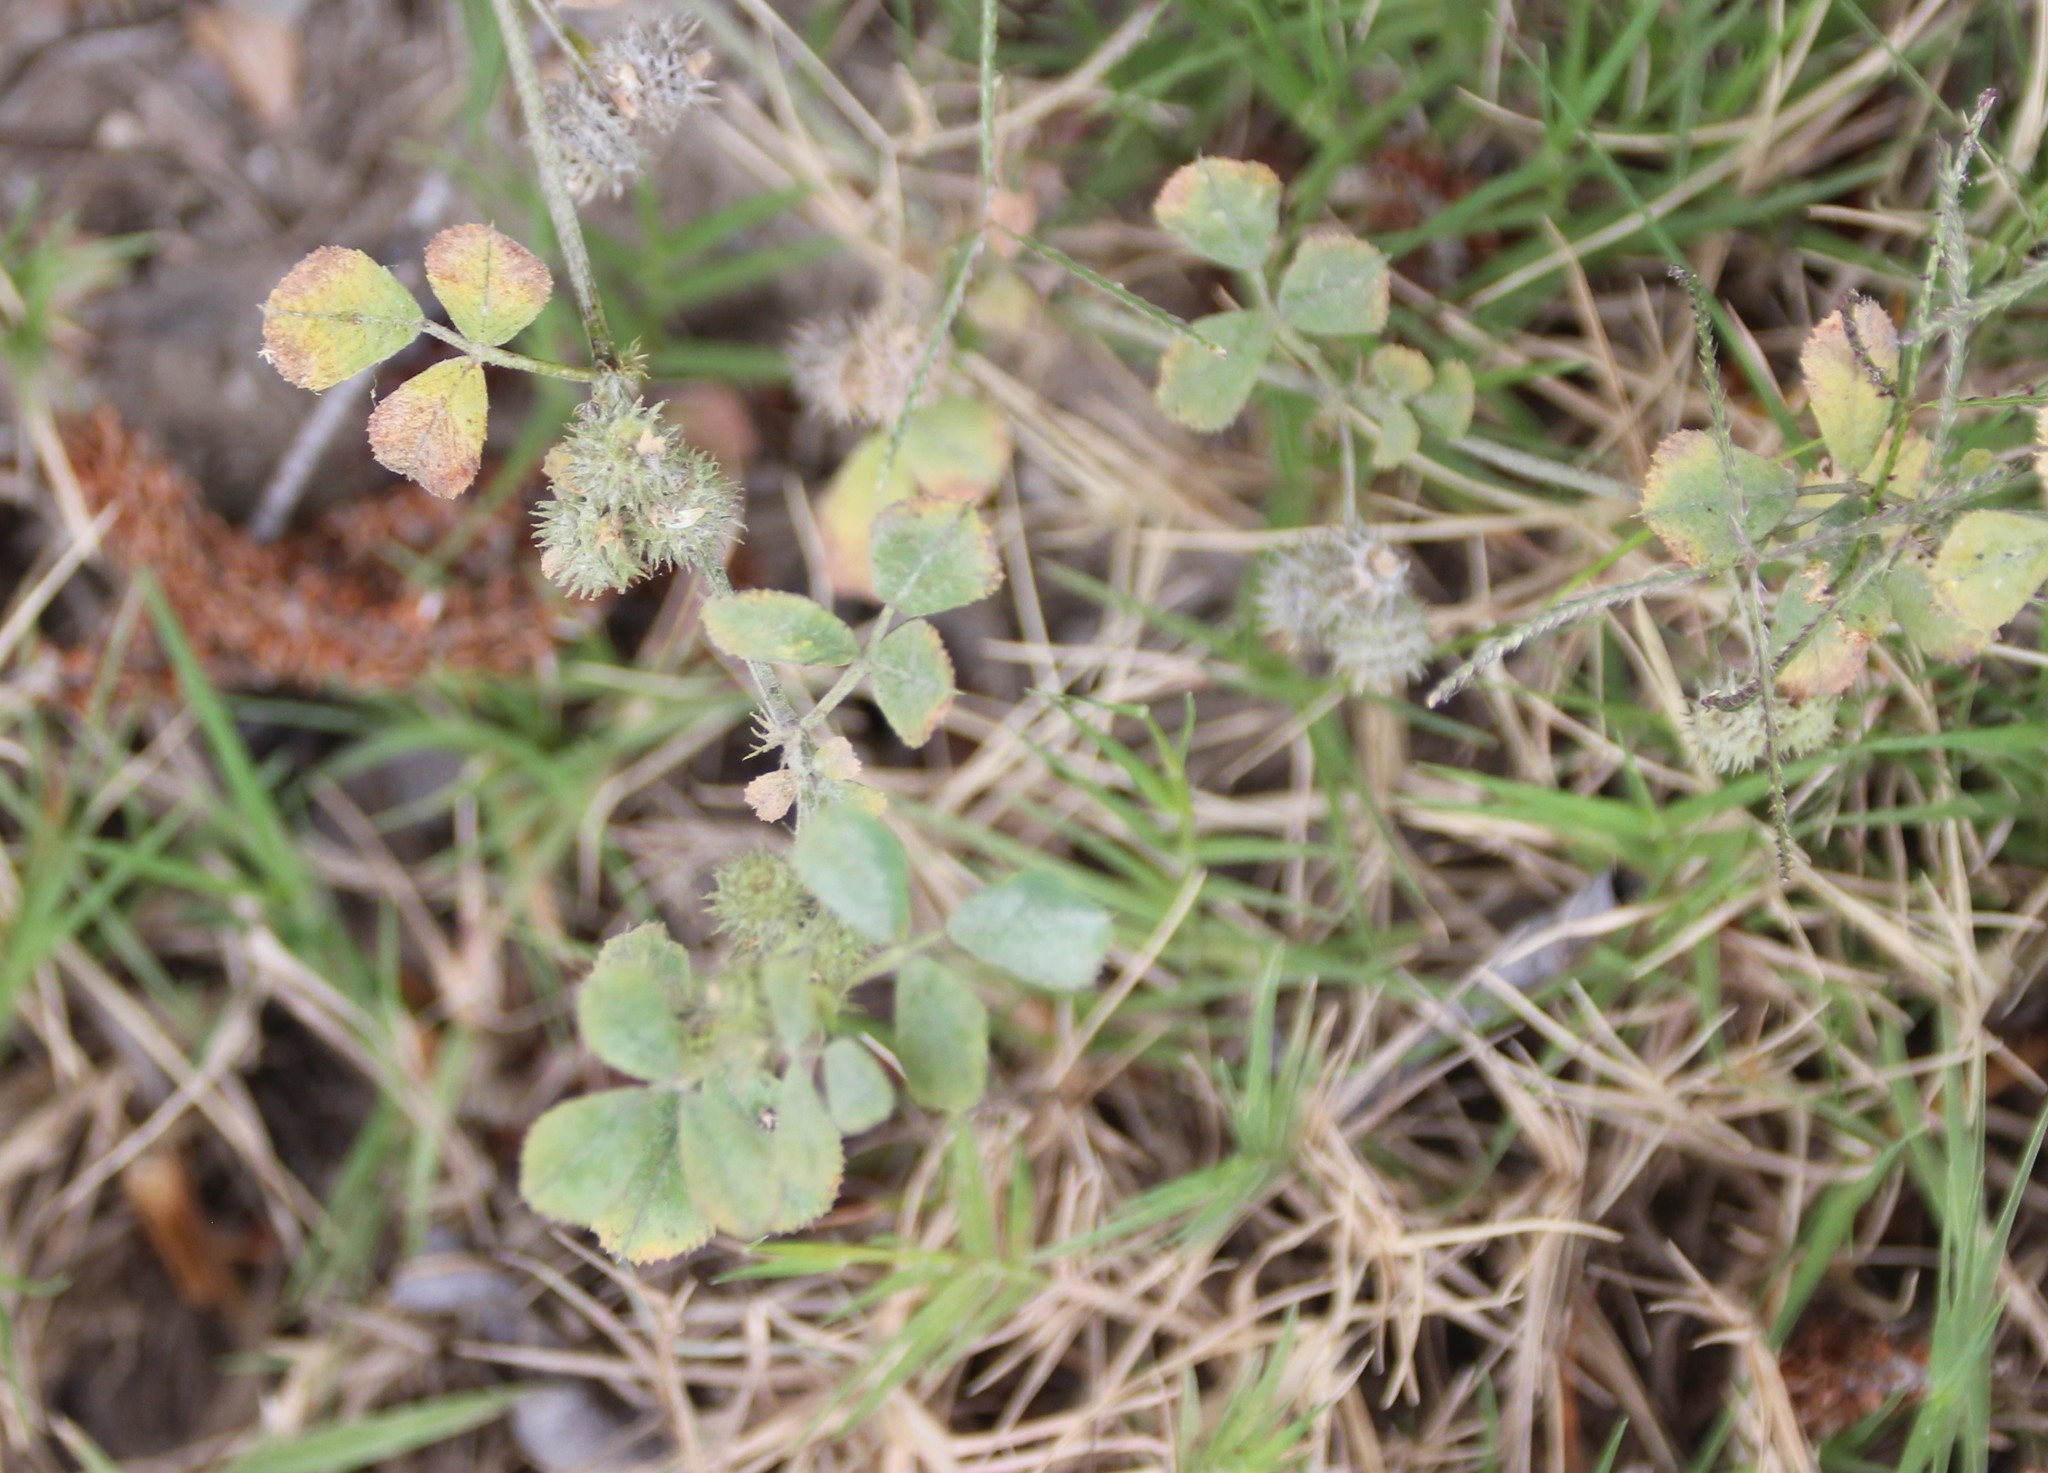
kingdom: Plantae
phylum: Tracheophyta
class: Magnoliopsida
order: Fabales
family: Fabaceae
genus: Medicago
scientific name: Medicago polymorpha
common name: Burclover
